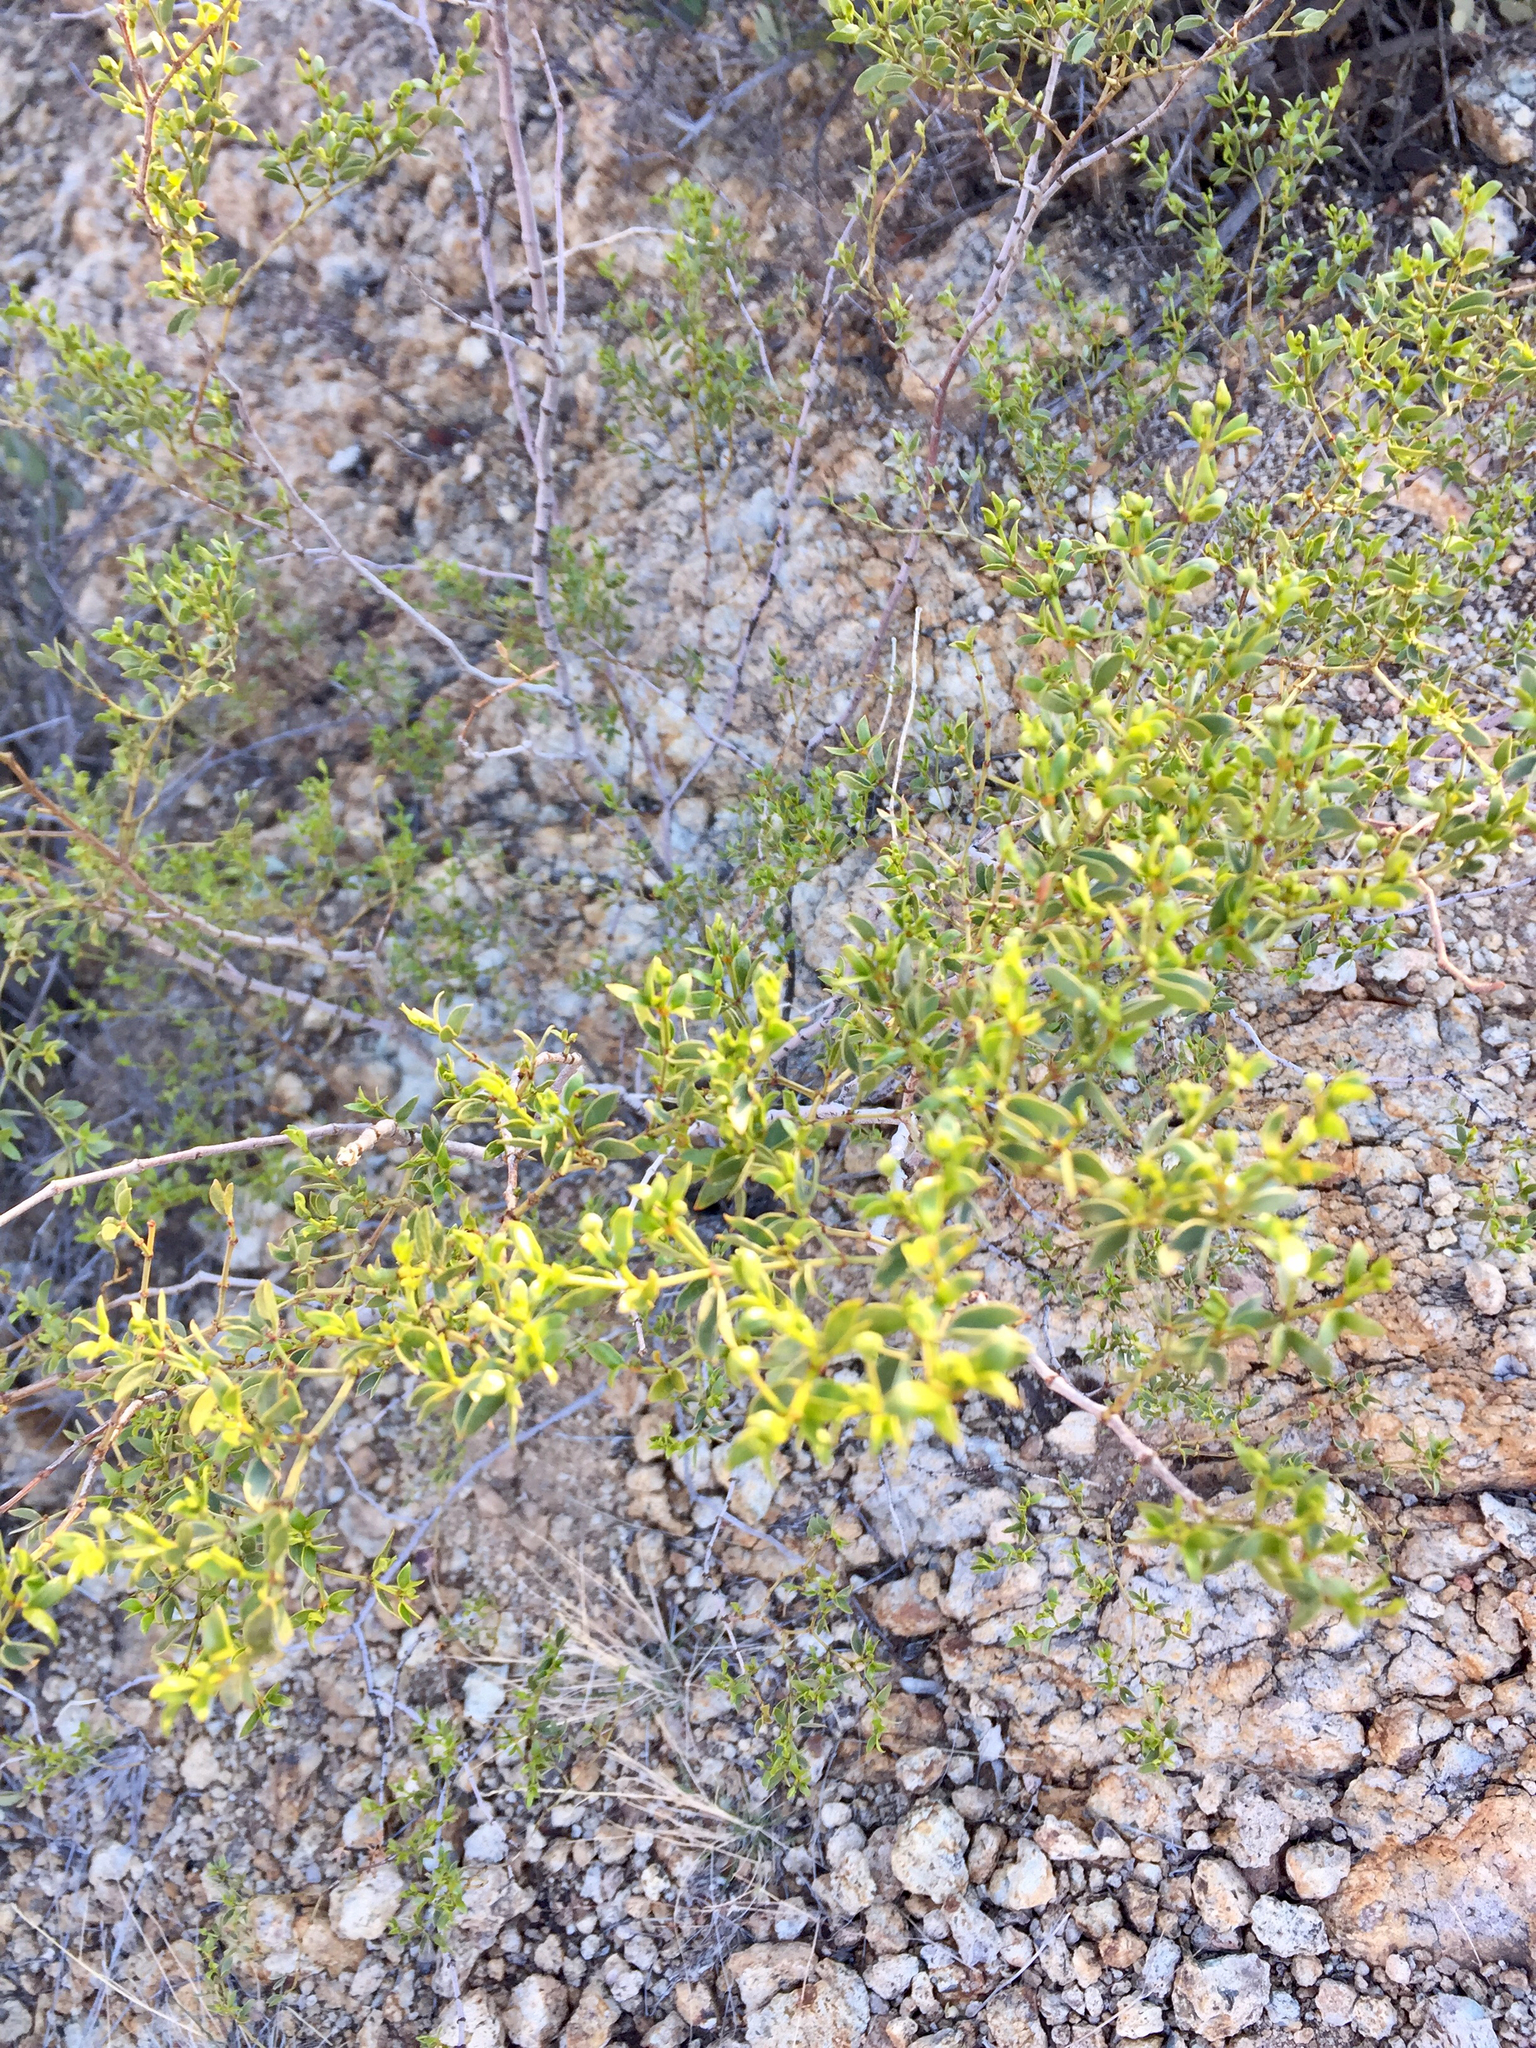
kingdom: Plantae
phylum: Tracheophyta
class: Magnoliopsida
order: Zygophyllales
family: Zygophyllaceae
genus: Larrea
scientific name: Larrea tridentata
